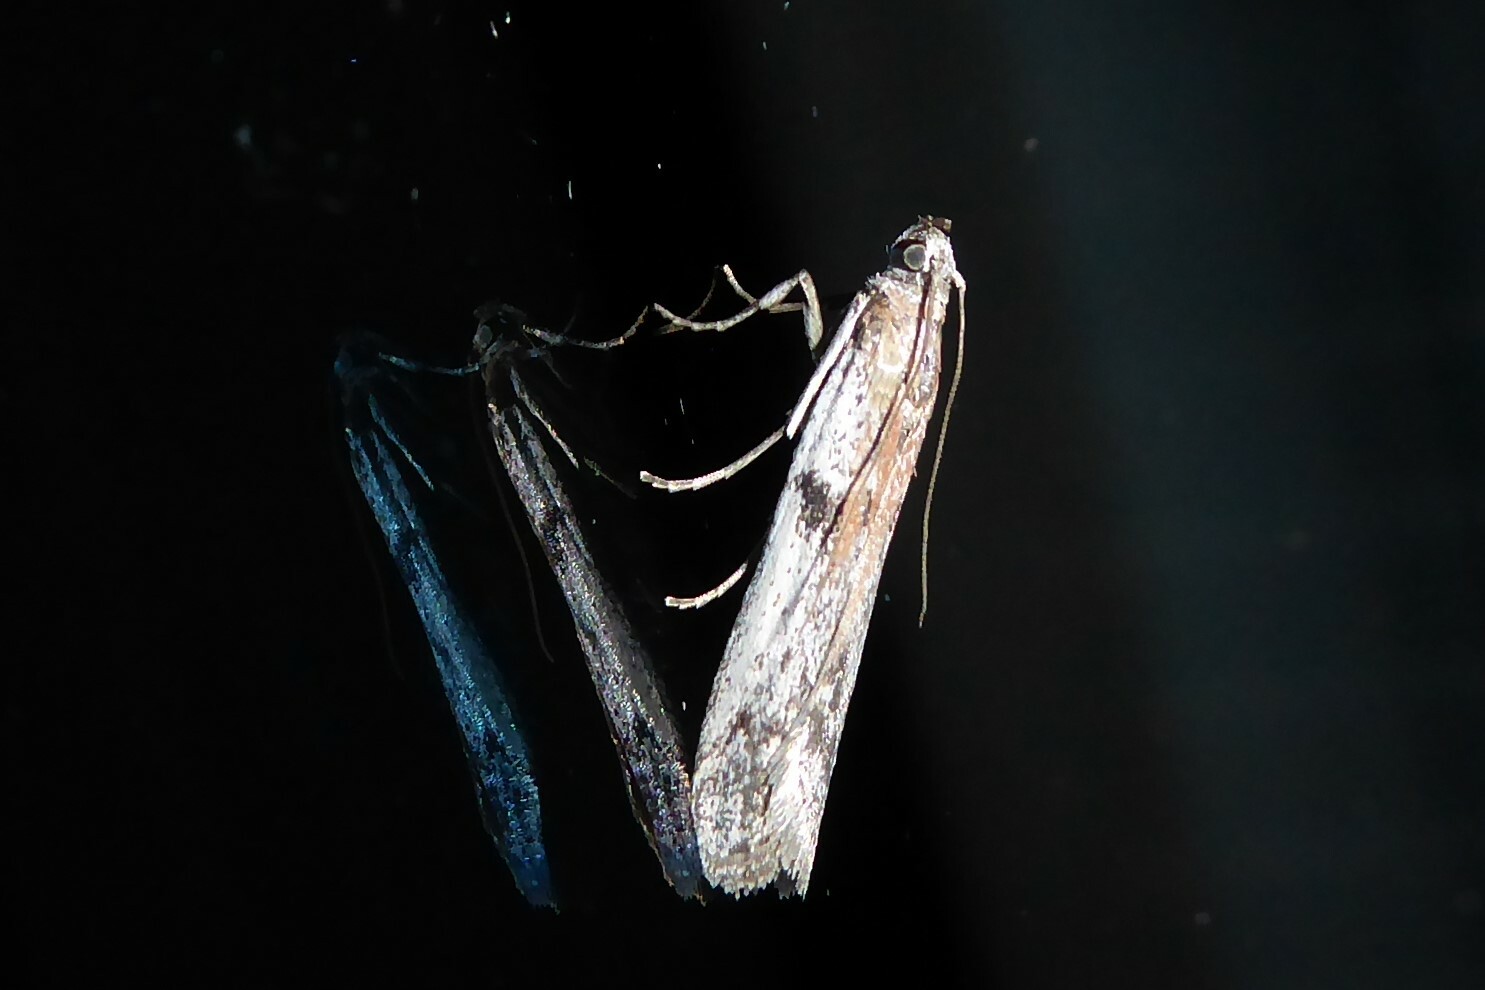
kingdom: Animalia
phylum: Arthropoda
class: Insecta
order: Lepidoptera
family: Pyralidae
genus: Patagoniodes
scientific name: Patagoniodes farinaria
